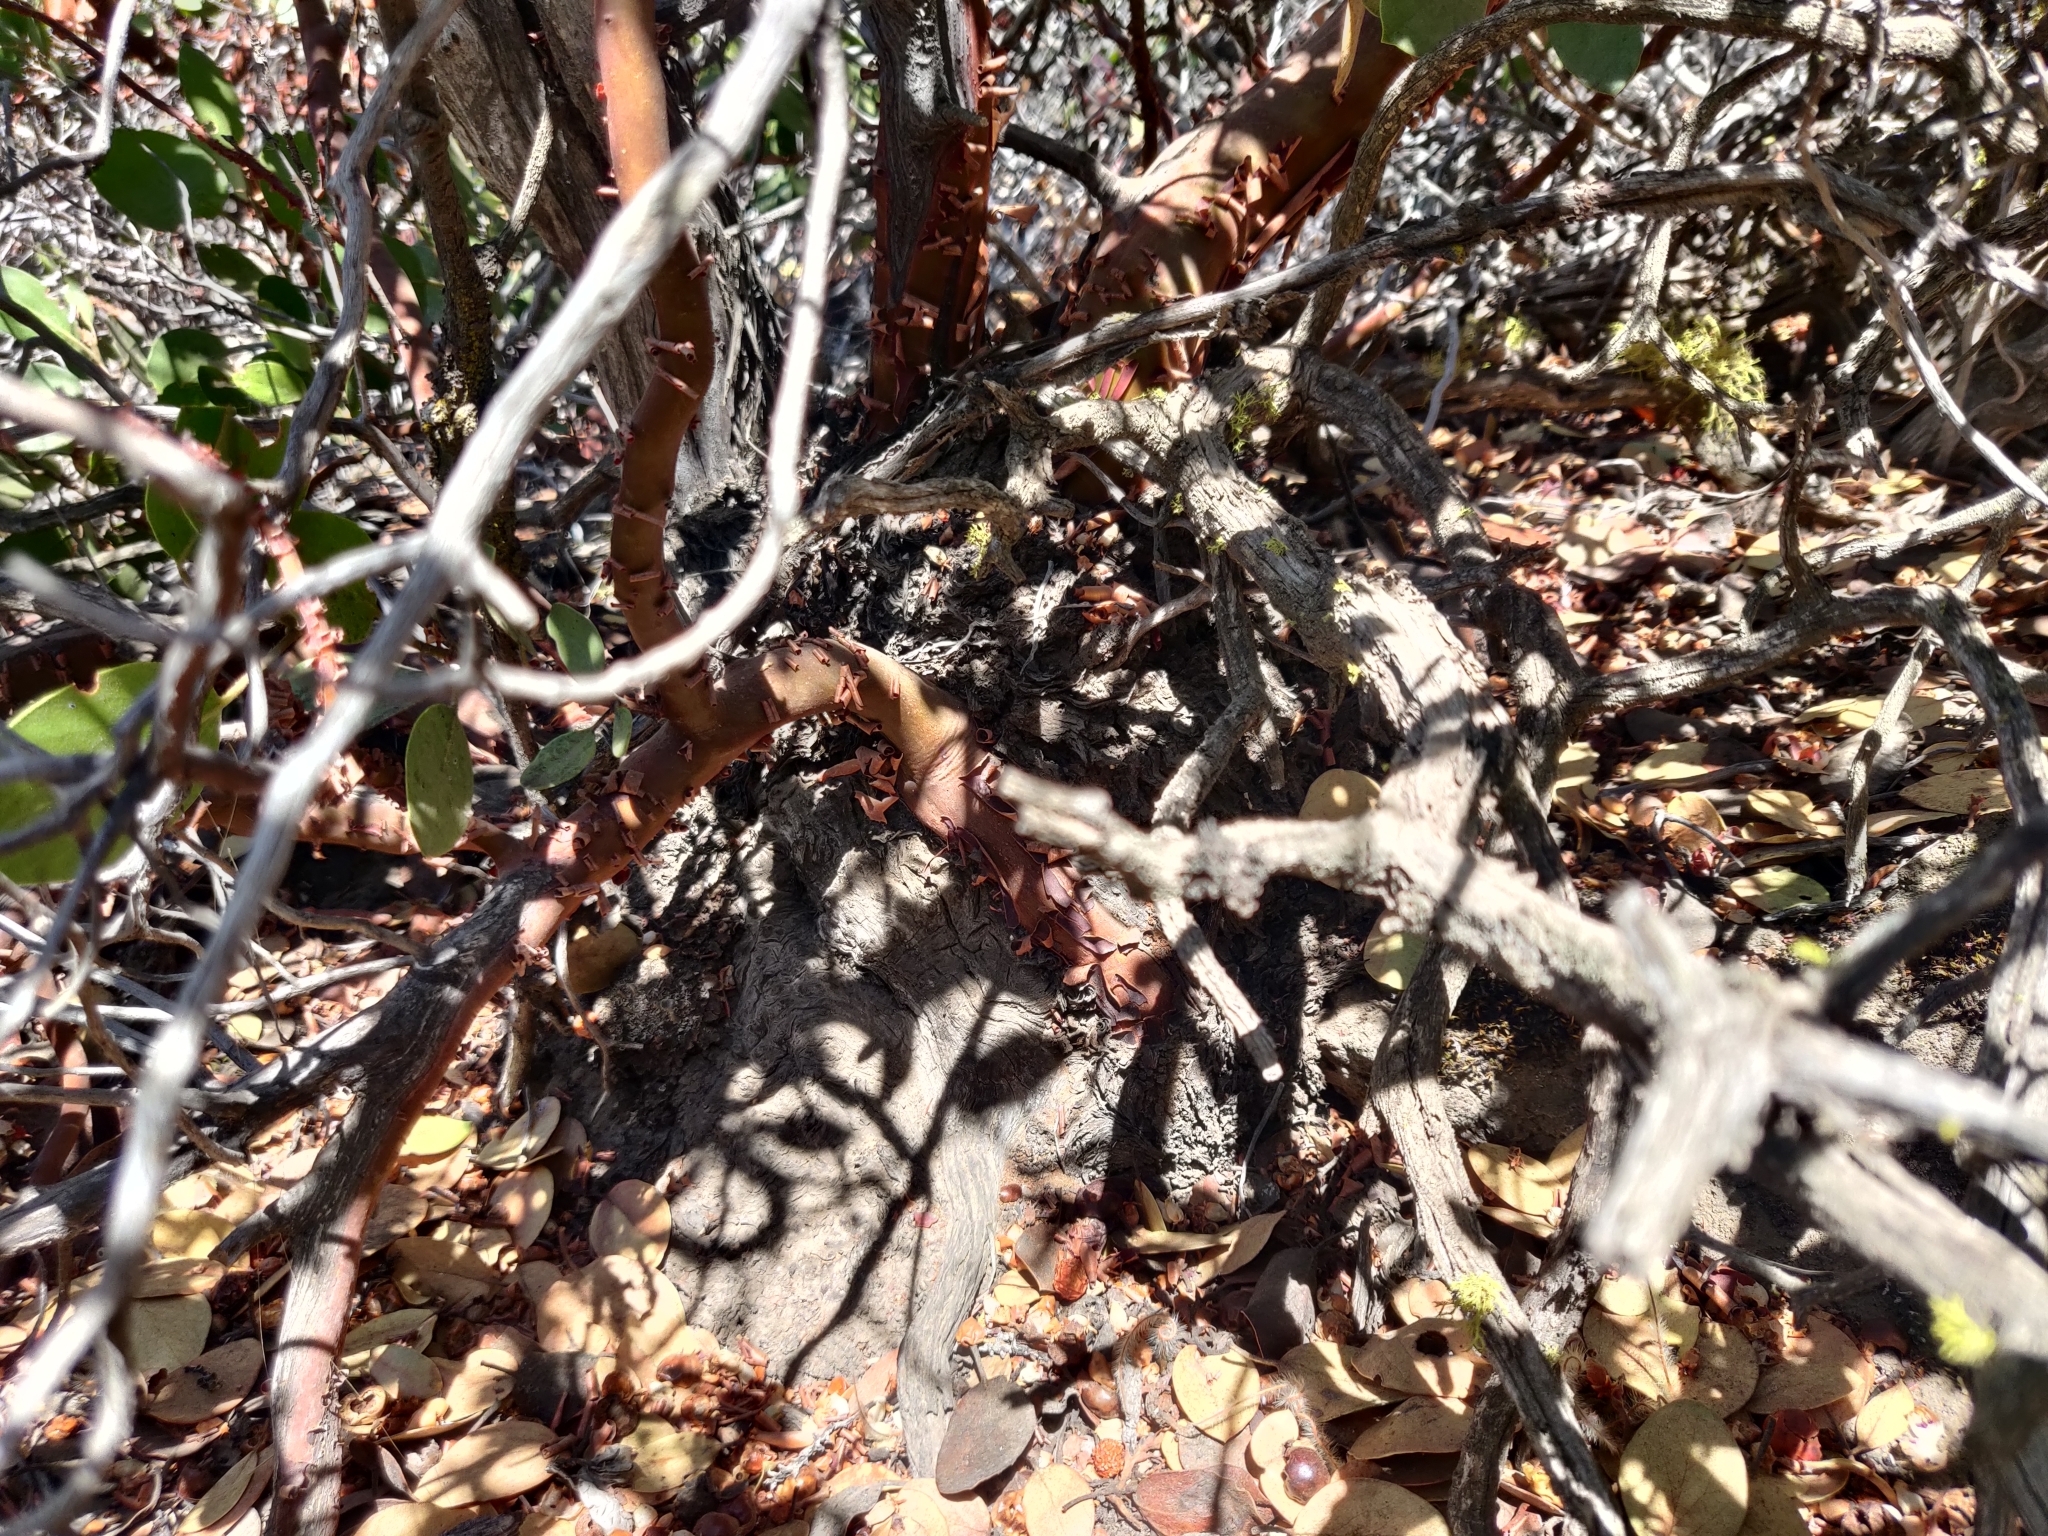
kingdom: Plantae
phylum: Tracheophyta
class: Magnoliopsida
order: Ericales
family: Ericaceae
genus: Arctostaphylos
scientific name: Arctostaphylos patula
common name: Green-leaf manzanita
